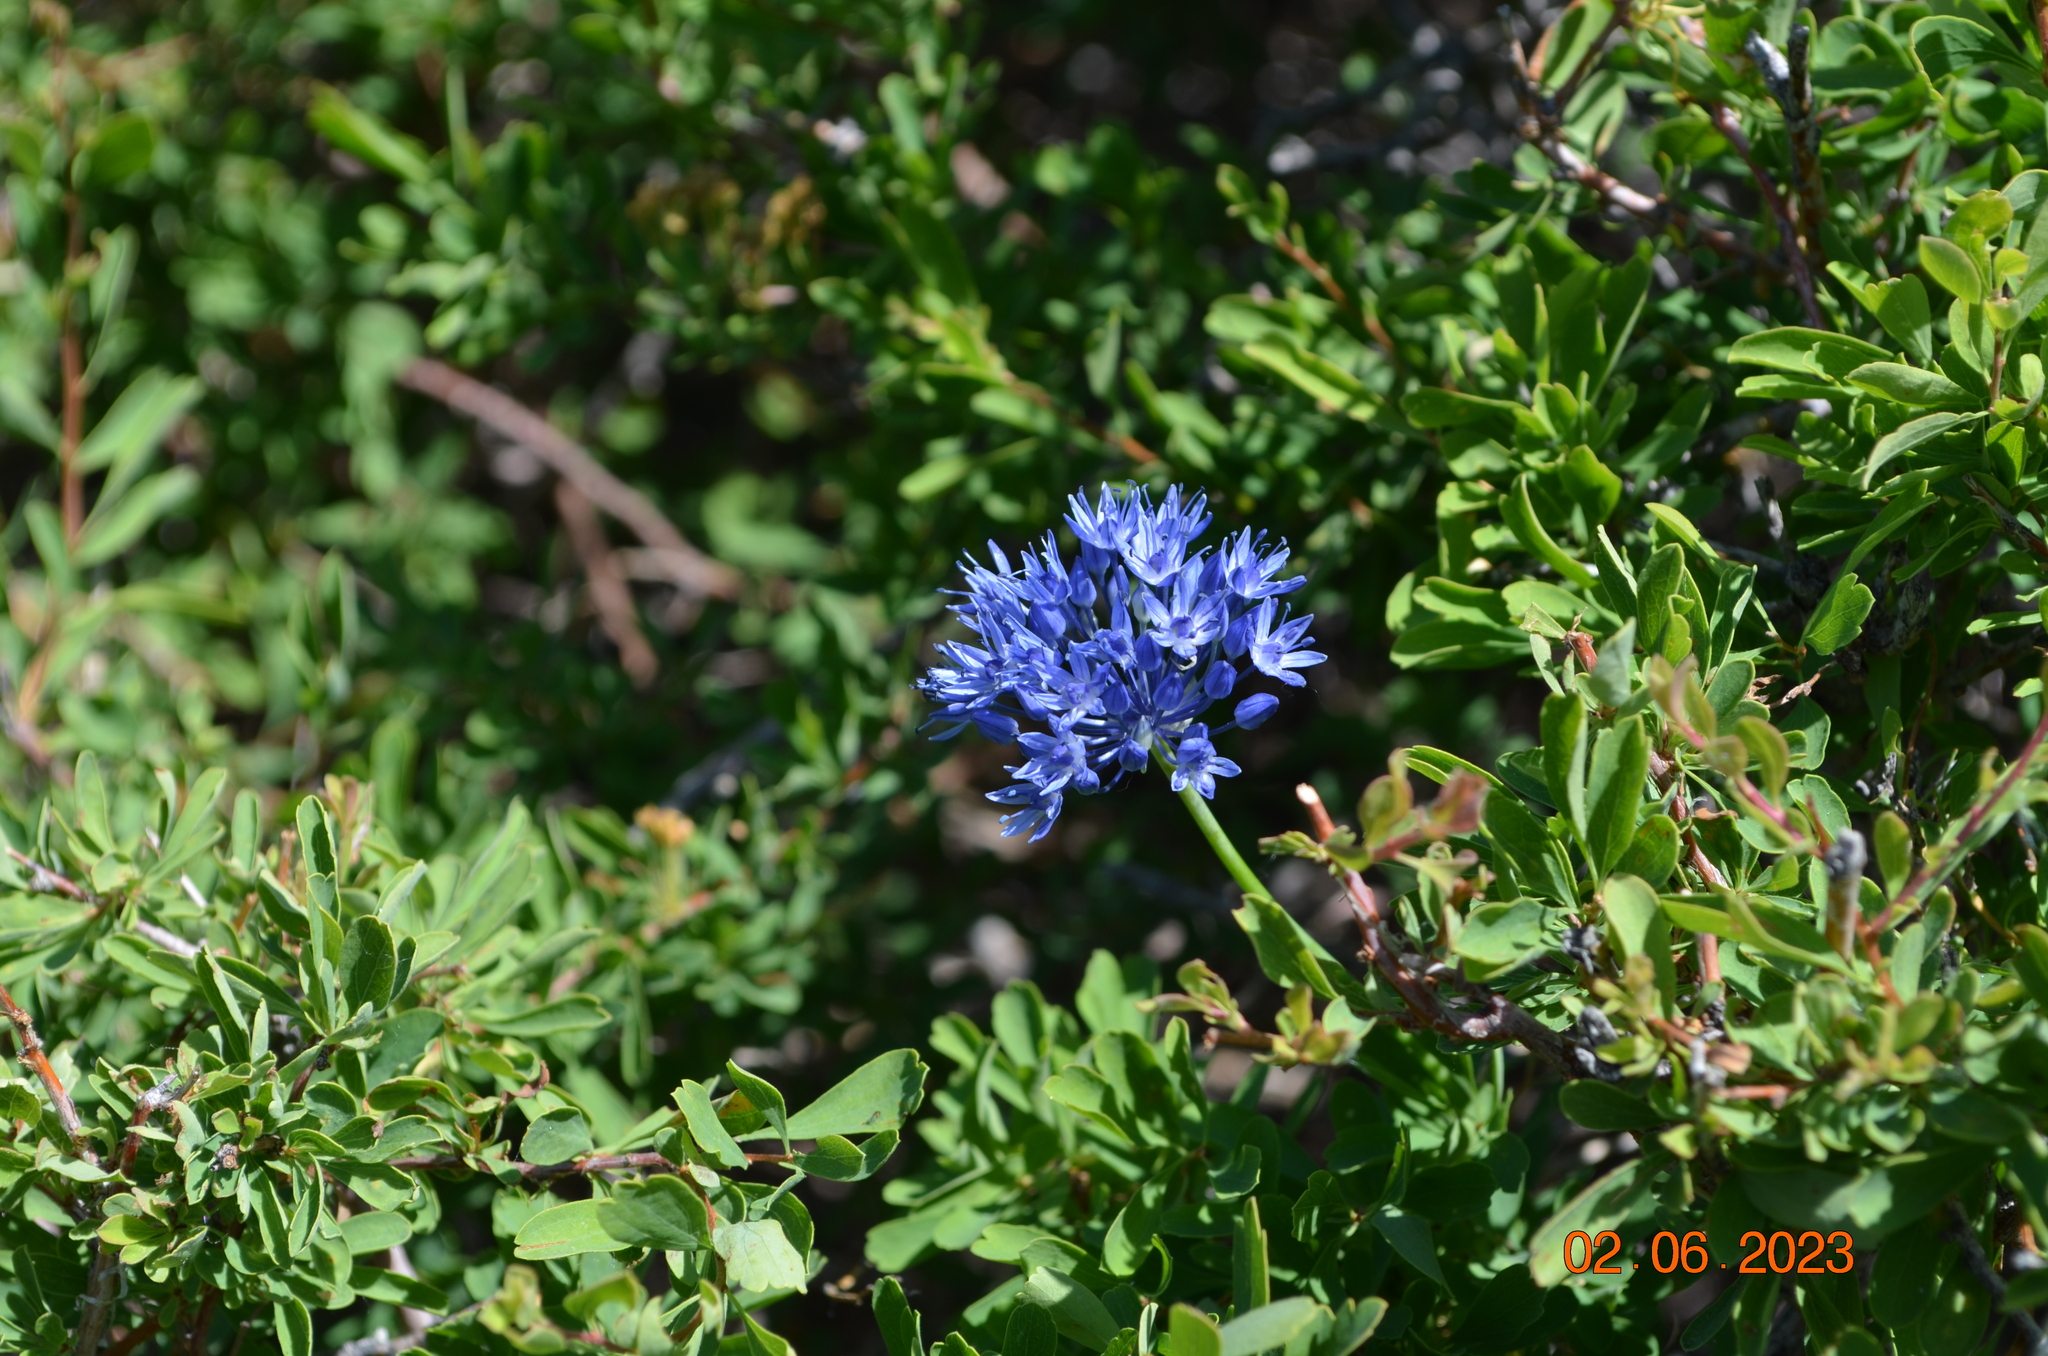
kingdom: Plantae
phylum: Tracheophyta
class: Liliopsida
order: Asparagales
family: Amaryllidaceae
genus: Allium
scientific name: Allium caeruleum
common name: Blue-of-the-heavens
